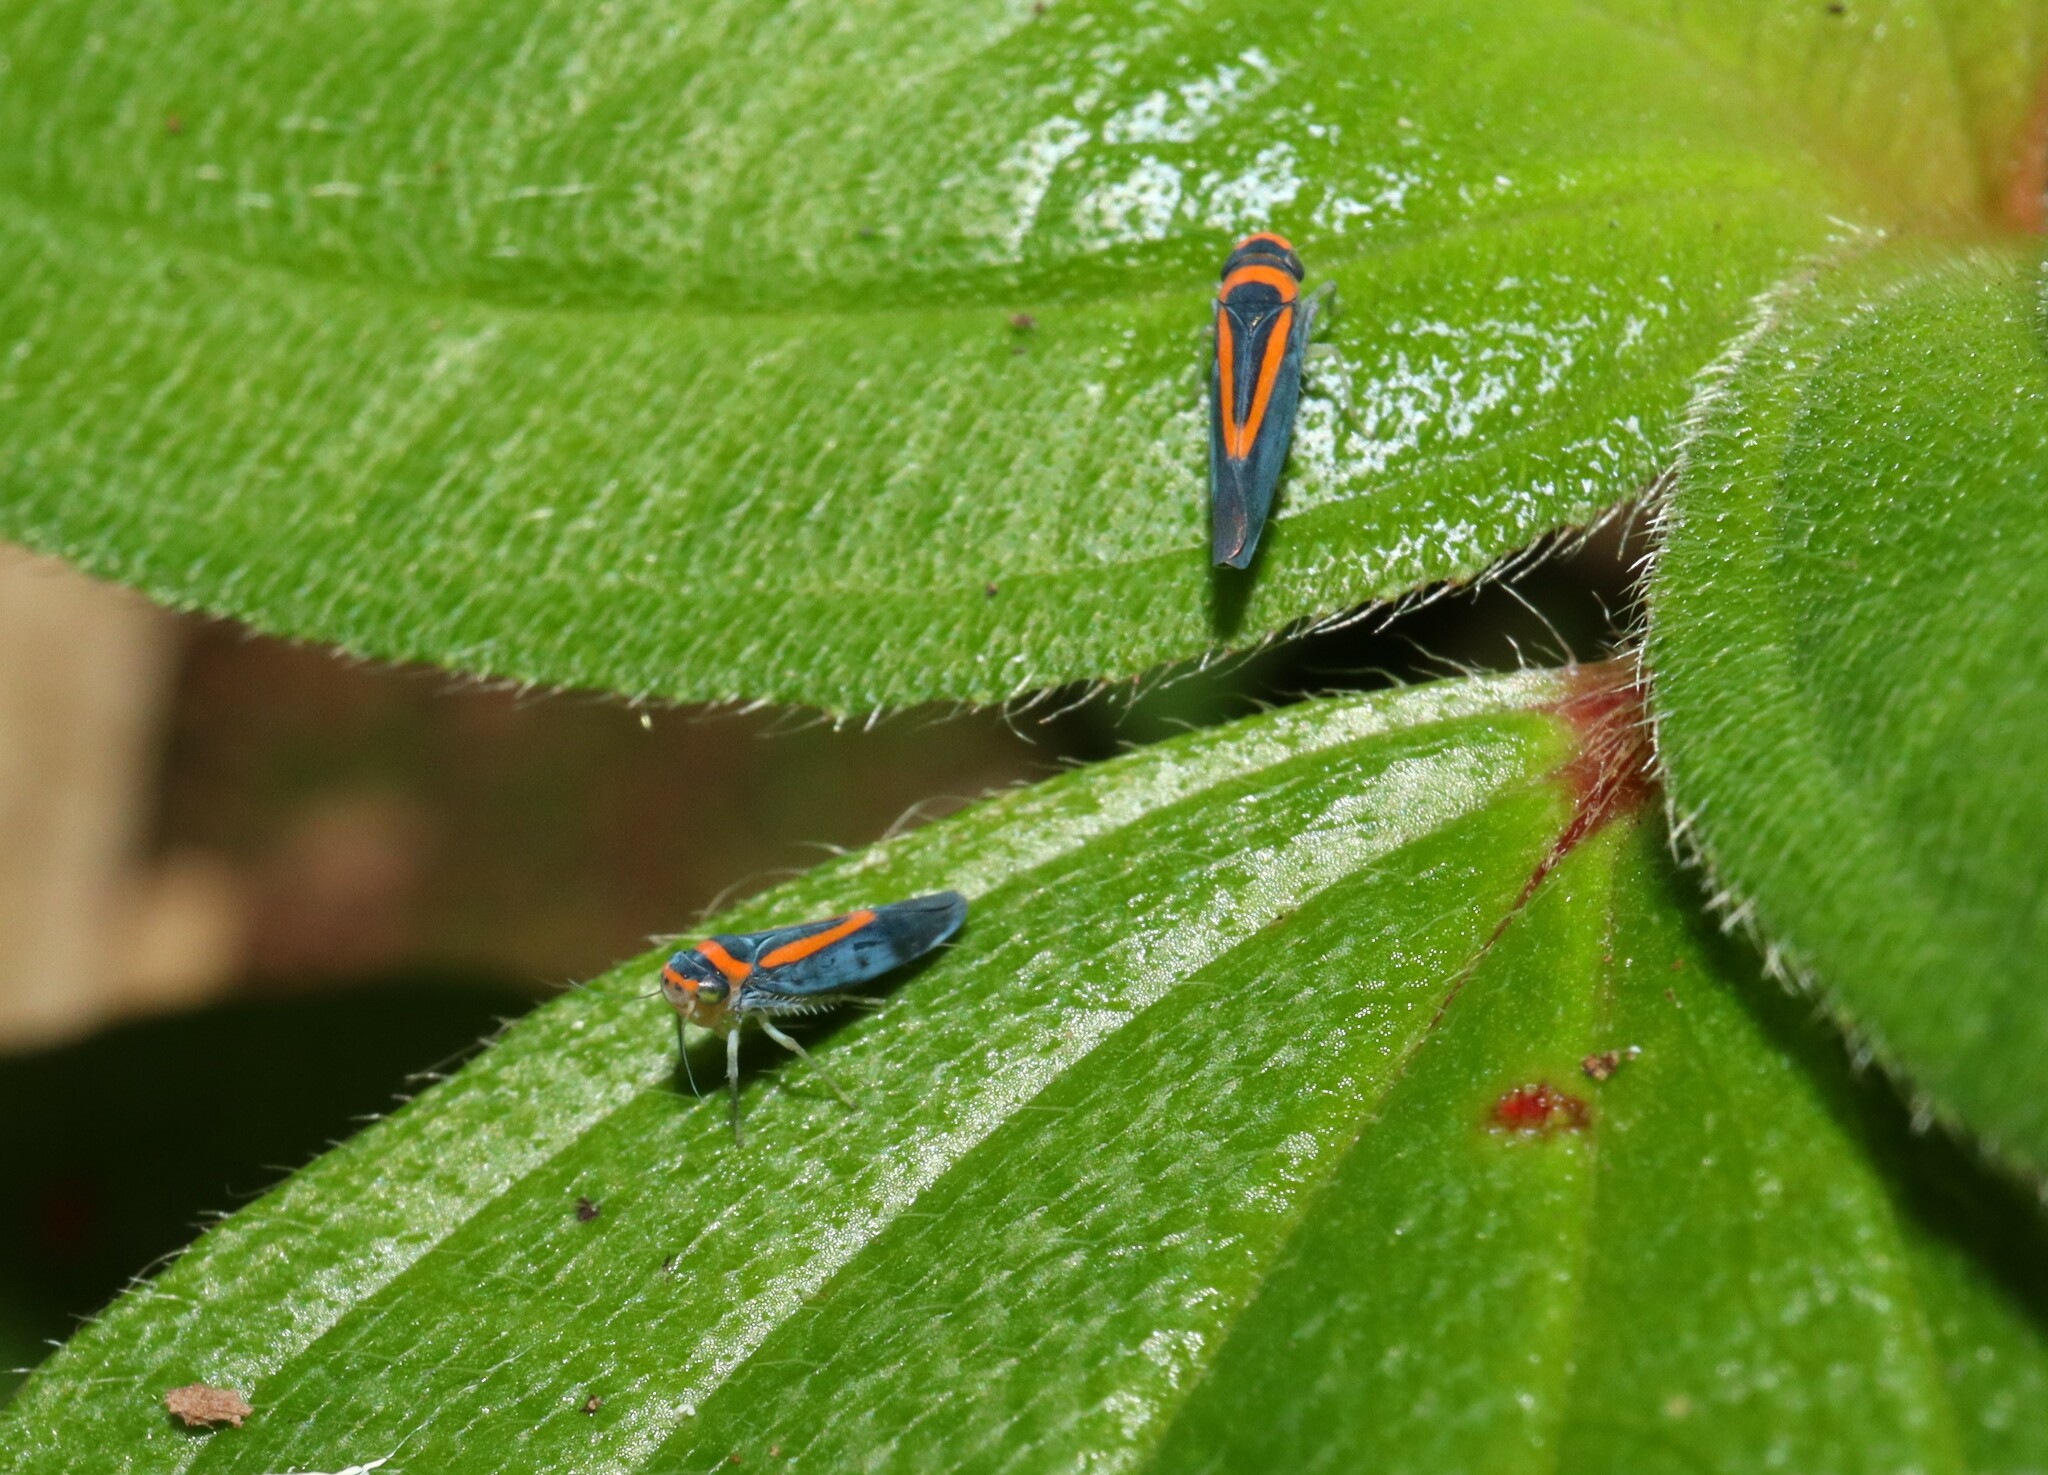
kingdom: Animalia
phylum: Arthropoda
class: Insecta
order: Hemiptera
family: Cicadellidae
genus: Ishidaella
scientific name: Ishidaella anemolua
